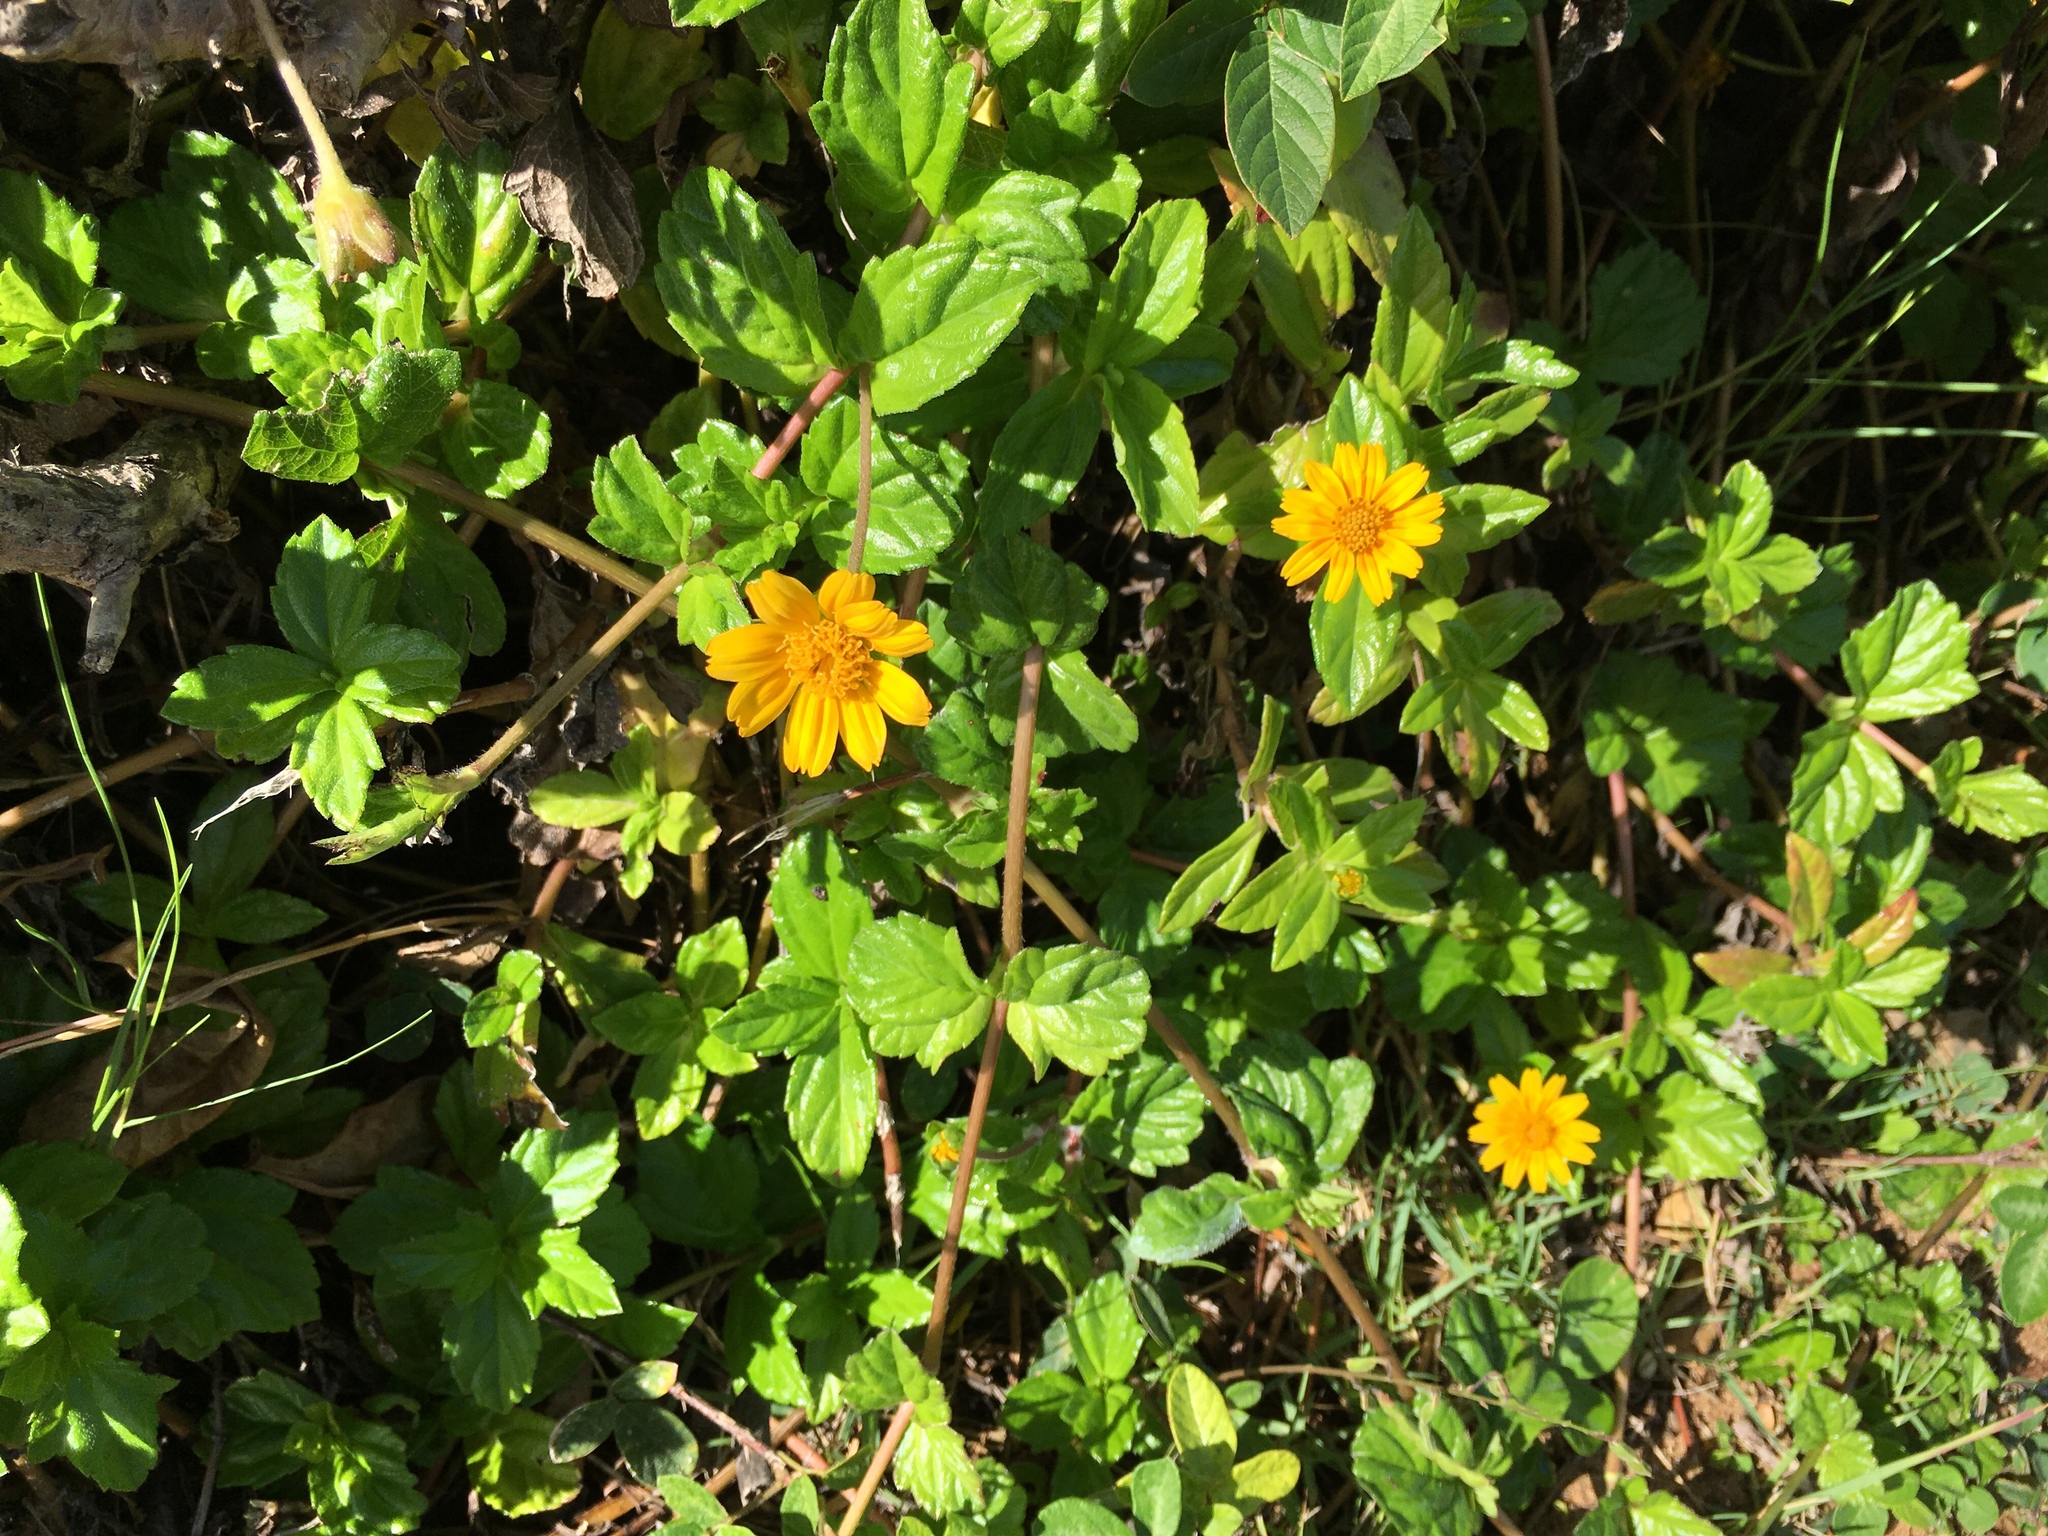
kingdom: Plantae
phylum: Tracheophyta
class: Magnoliopsida
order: Asterales
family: Asteraceae
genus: Sphagneticola
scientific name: Sphagneticola trilobata
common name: Bay biscayne creeping-oxeye
